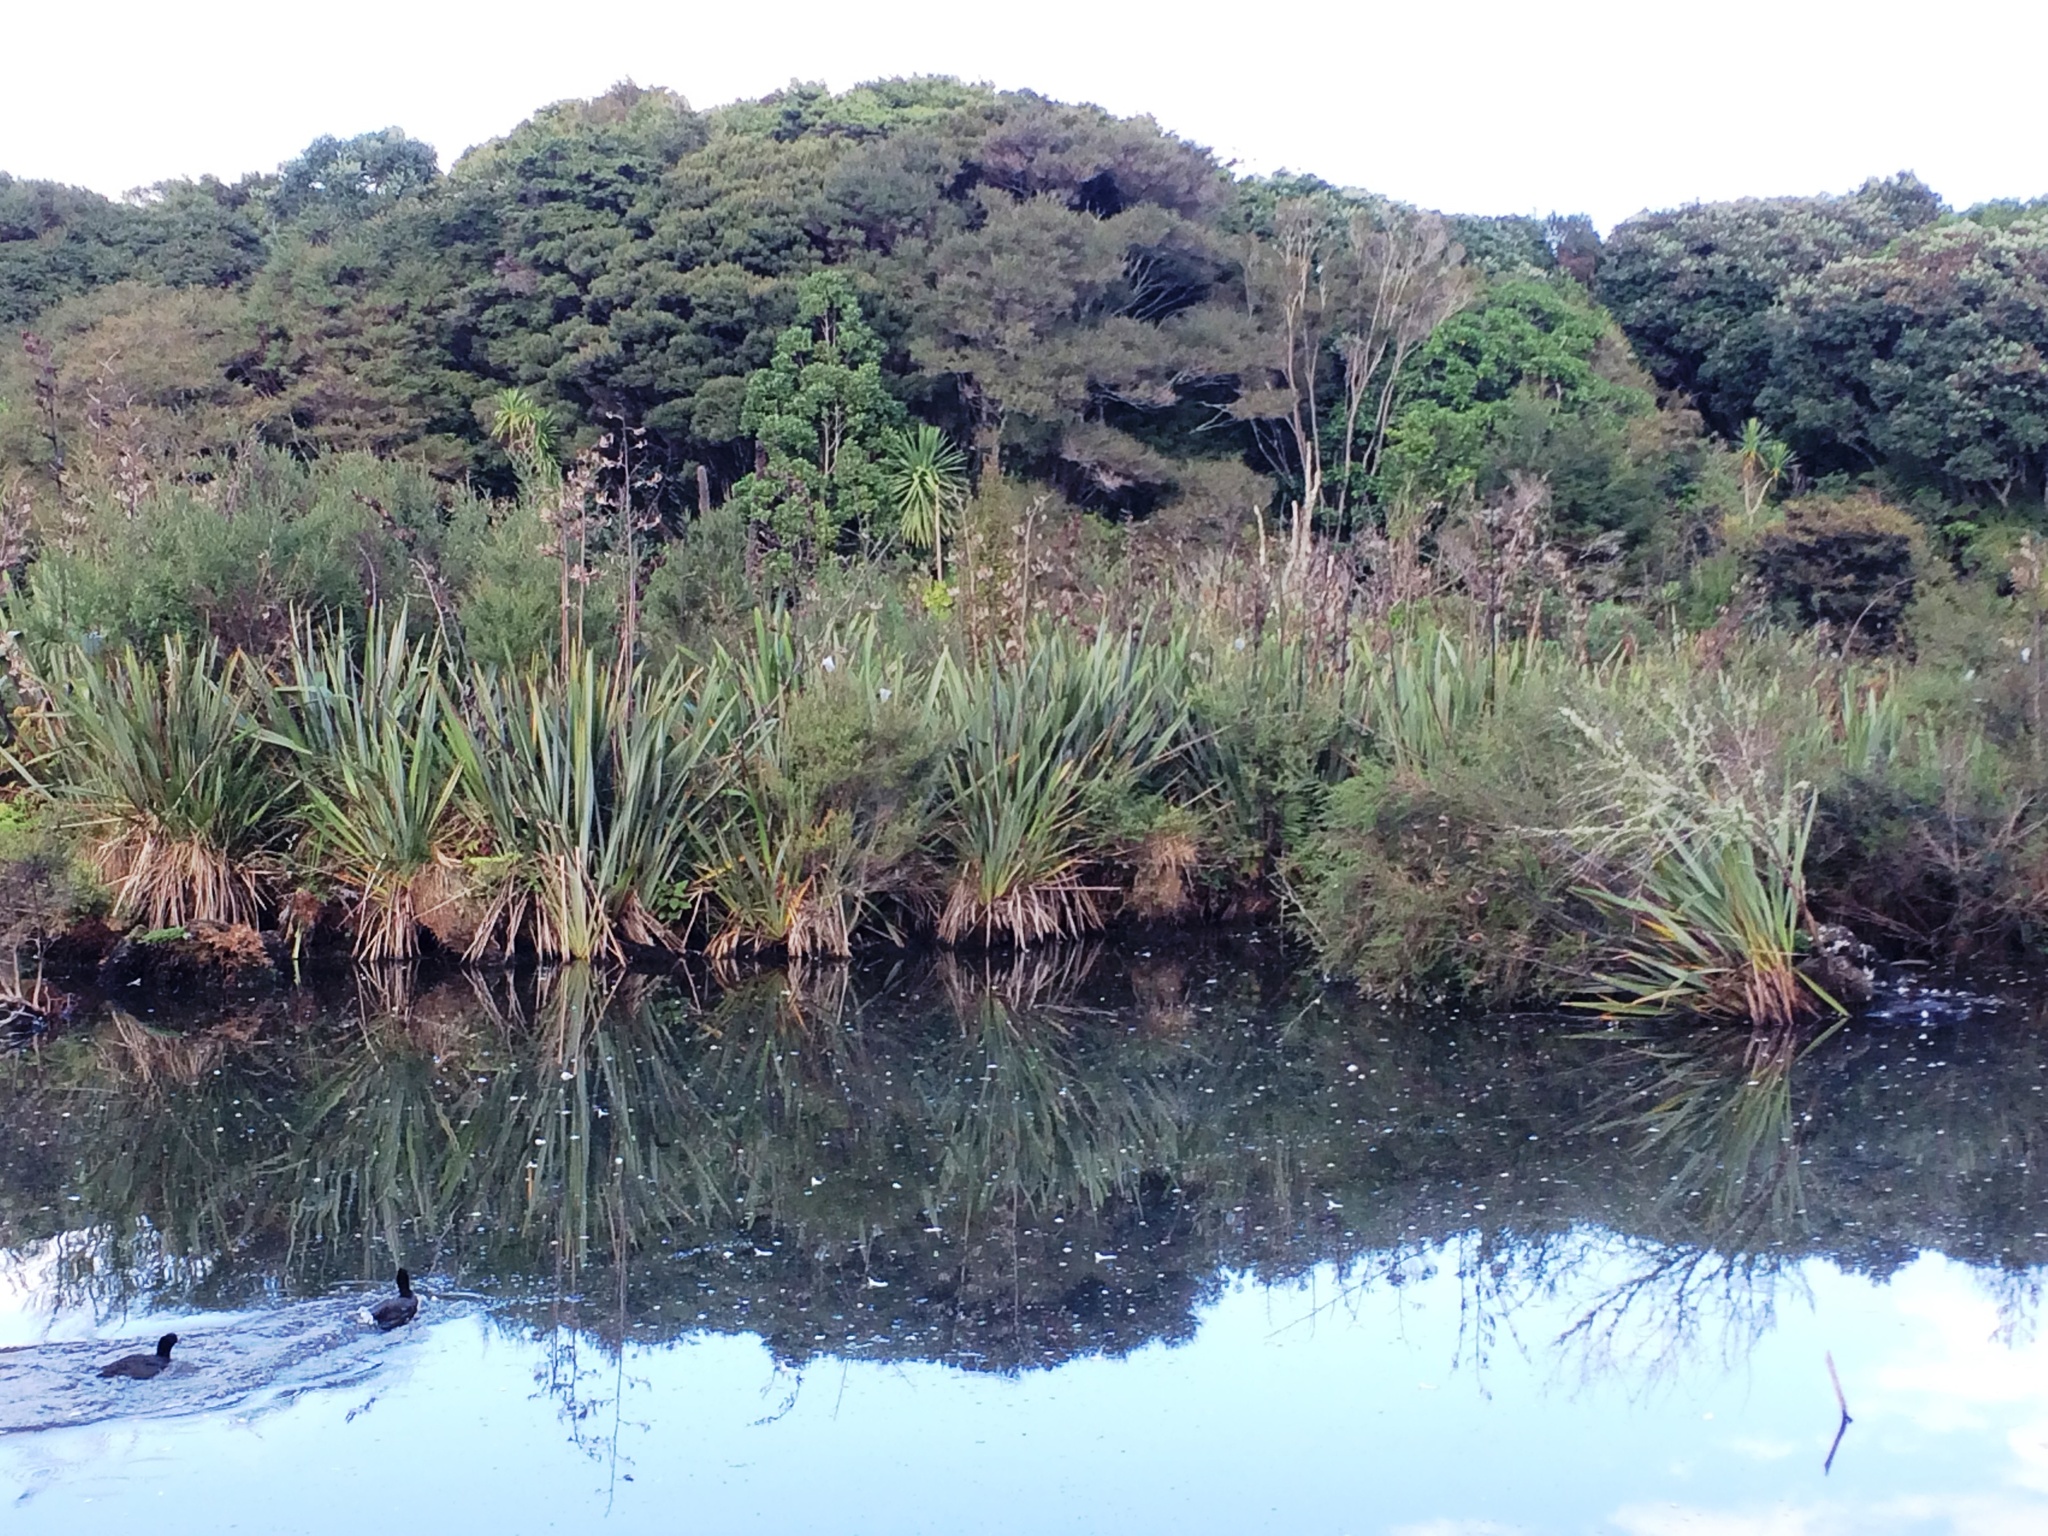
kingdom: Plantae
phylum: Tracheophyta
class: Liliopsida
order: Asparagales
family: Asphodelaceae
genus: Phormium
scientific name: Phormium tenax
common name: New zealand flax
